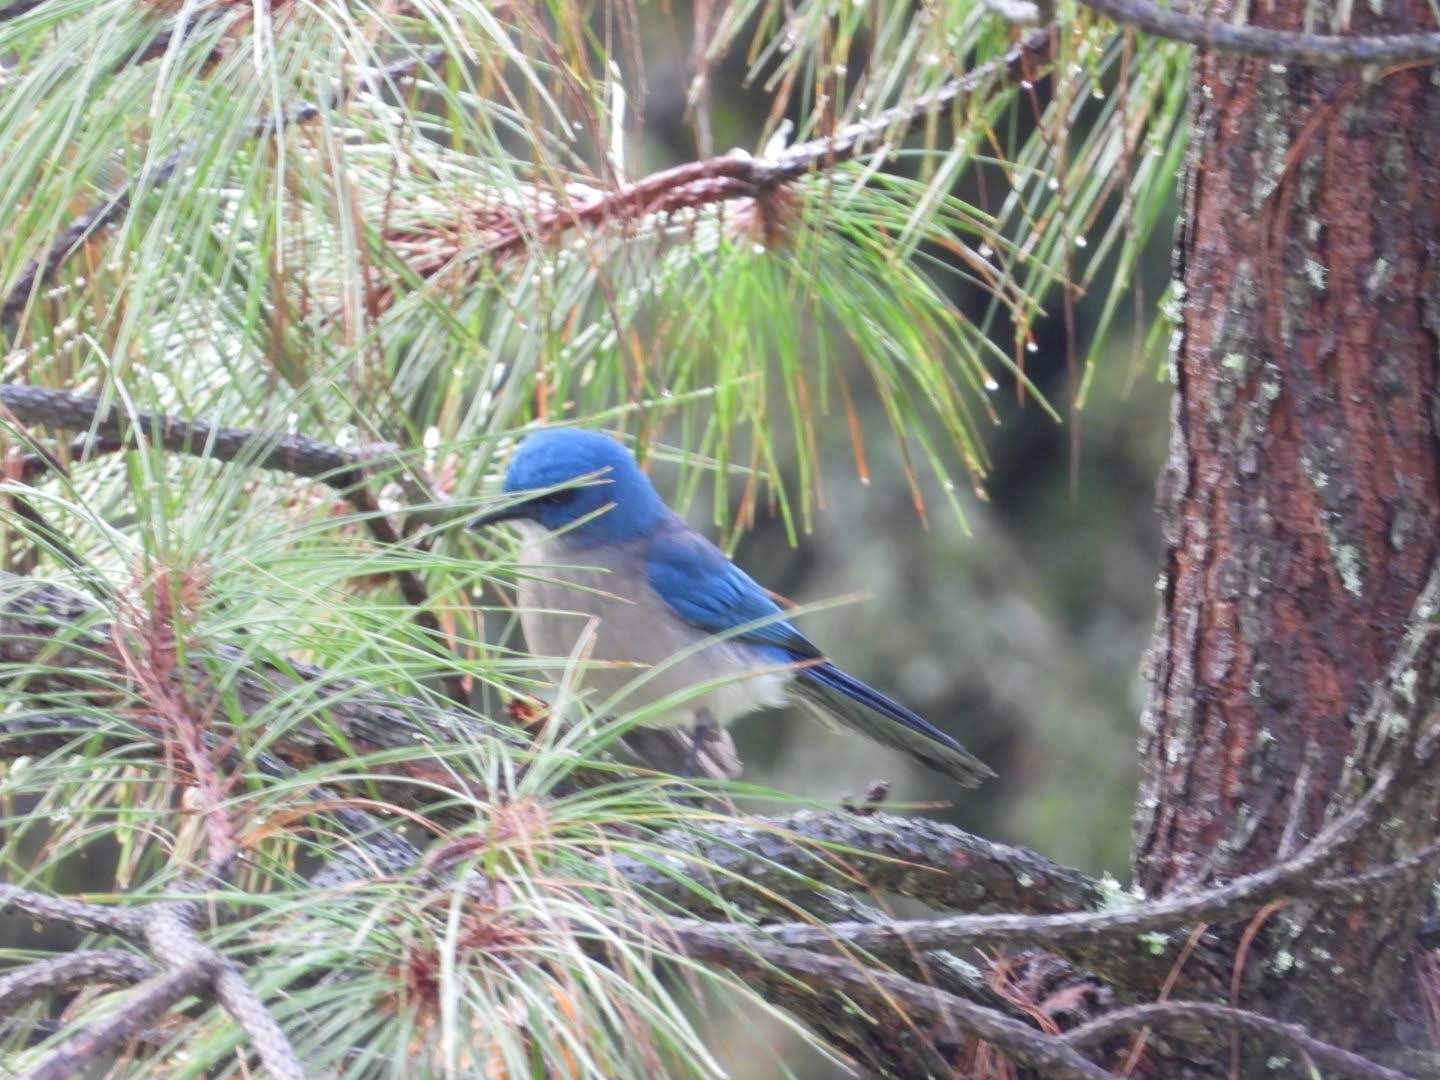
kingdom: Animalia
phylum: Chordata
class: Aves
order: Passeriformes
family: Corvidae
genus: Aphelocoma
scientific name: Aphelocoma ultramarina
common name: Transvolcanic jay
